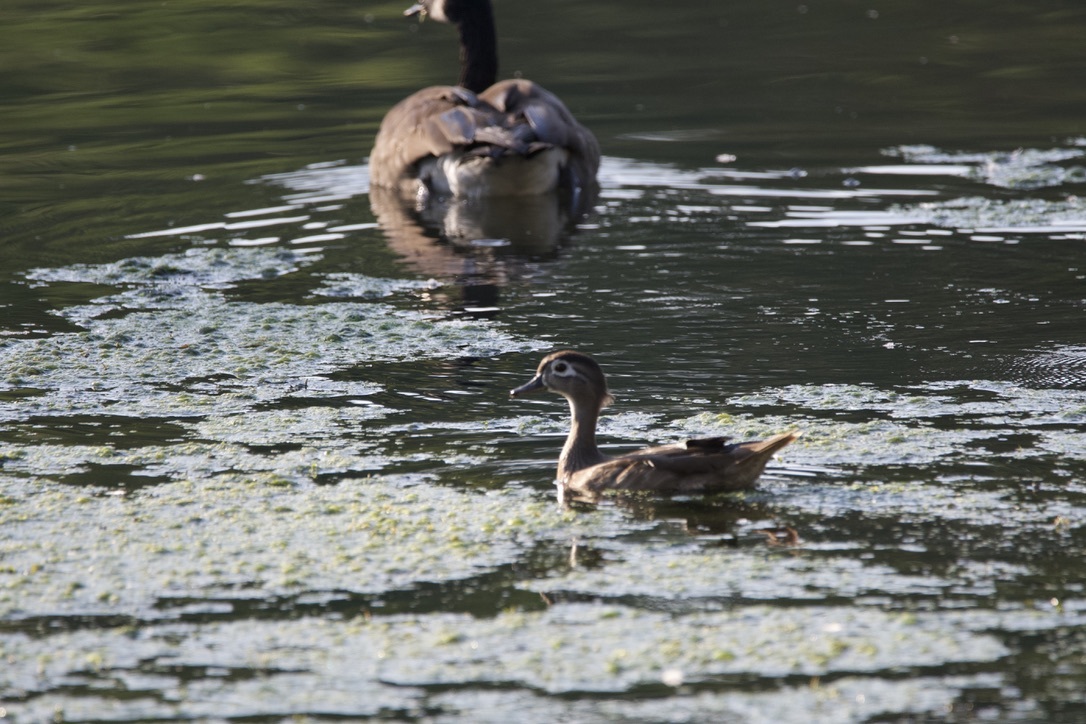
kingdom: Animalia
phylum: Chordata
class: Aves
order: Anseriformes
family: Anatidae
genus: Aix
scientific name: Aix sponsa
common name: Wood duck
